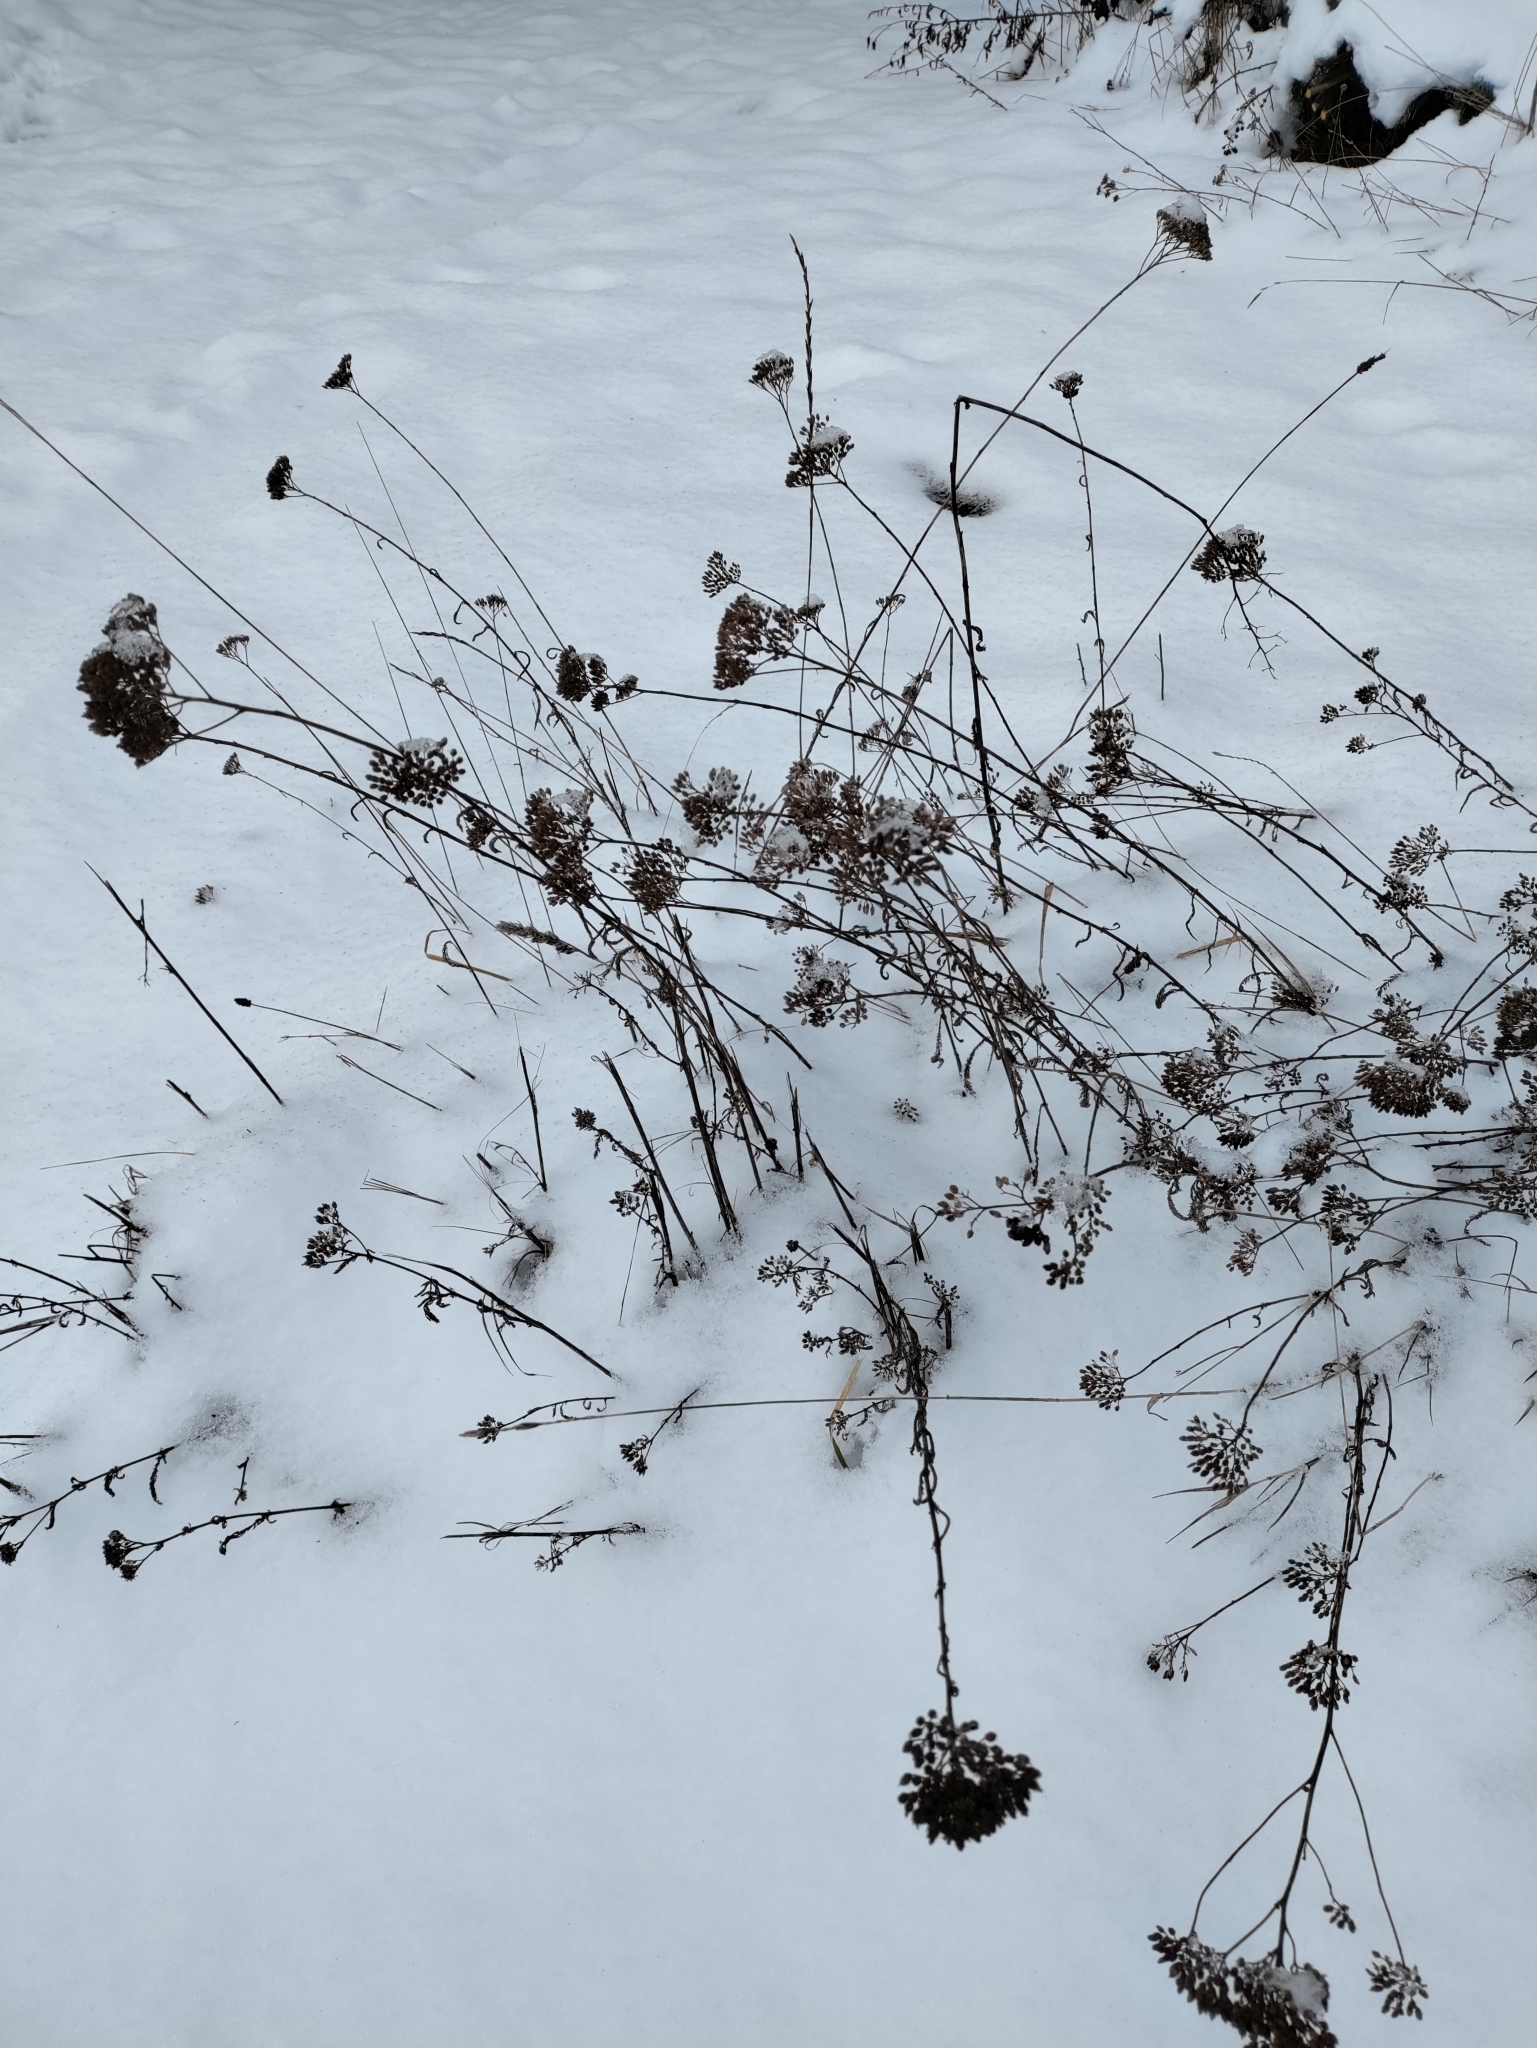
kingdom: Plantae
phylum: Tracheophyta
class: Magnoliopsida
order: Asterales
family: Asteraceae
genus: Achillea
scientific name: Achillea
